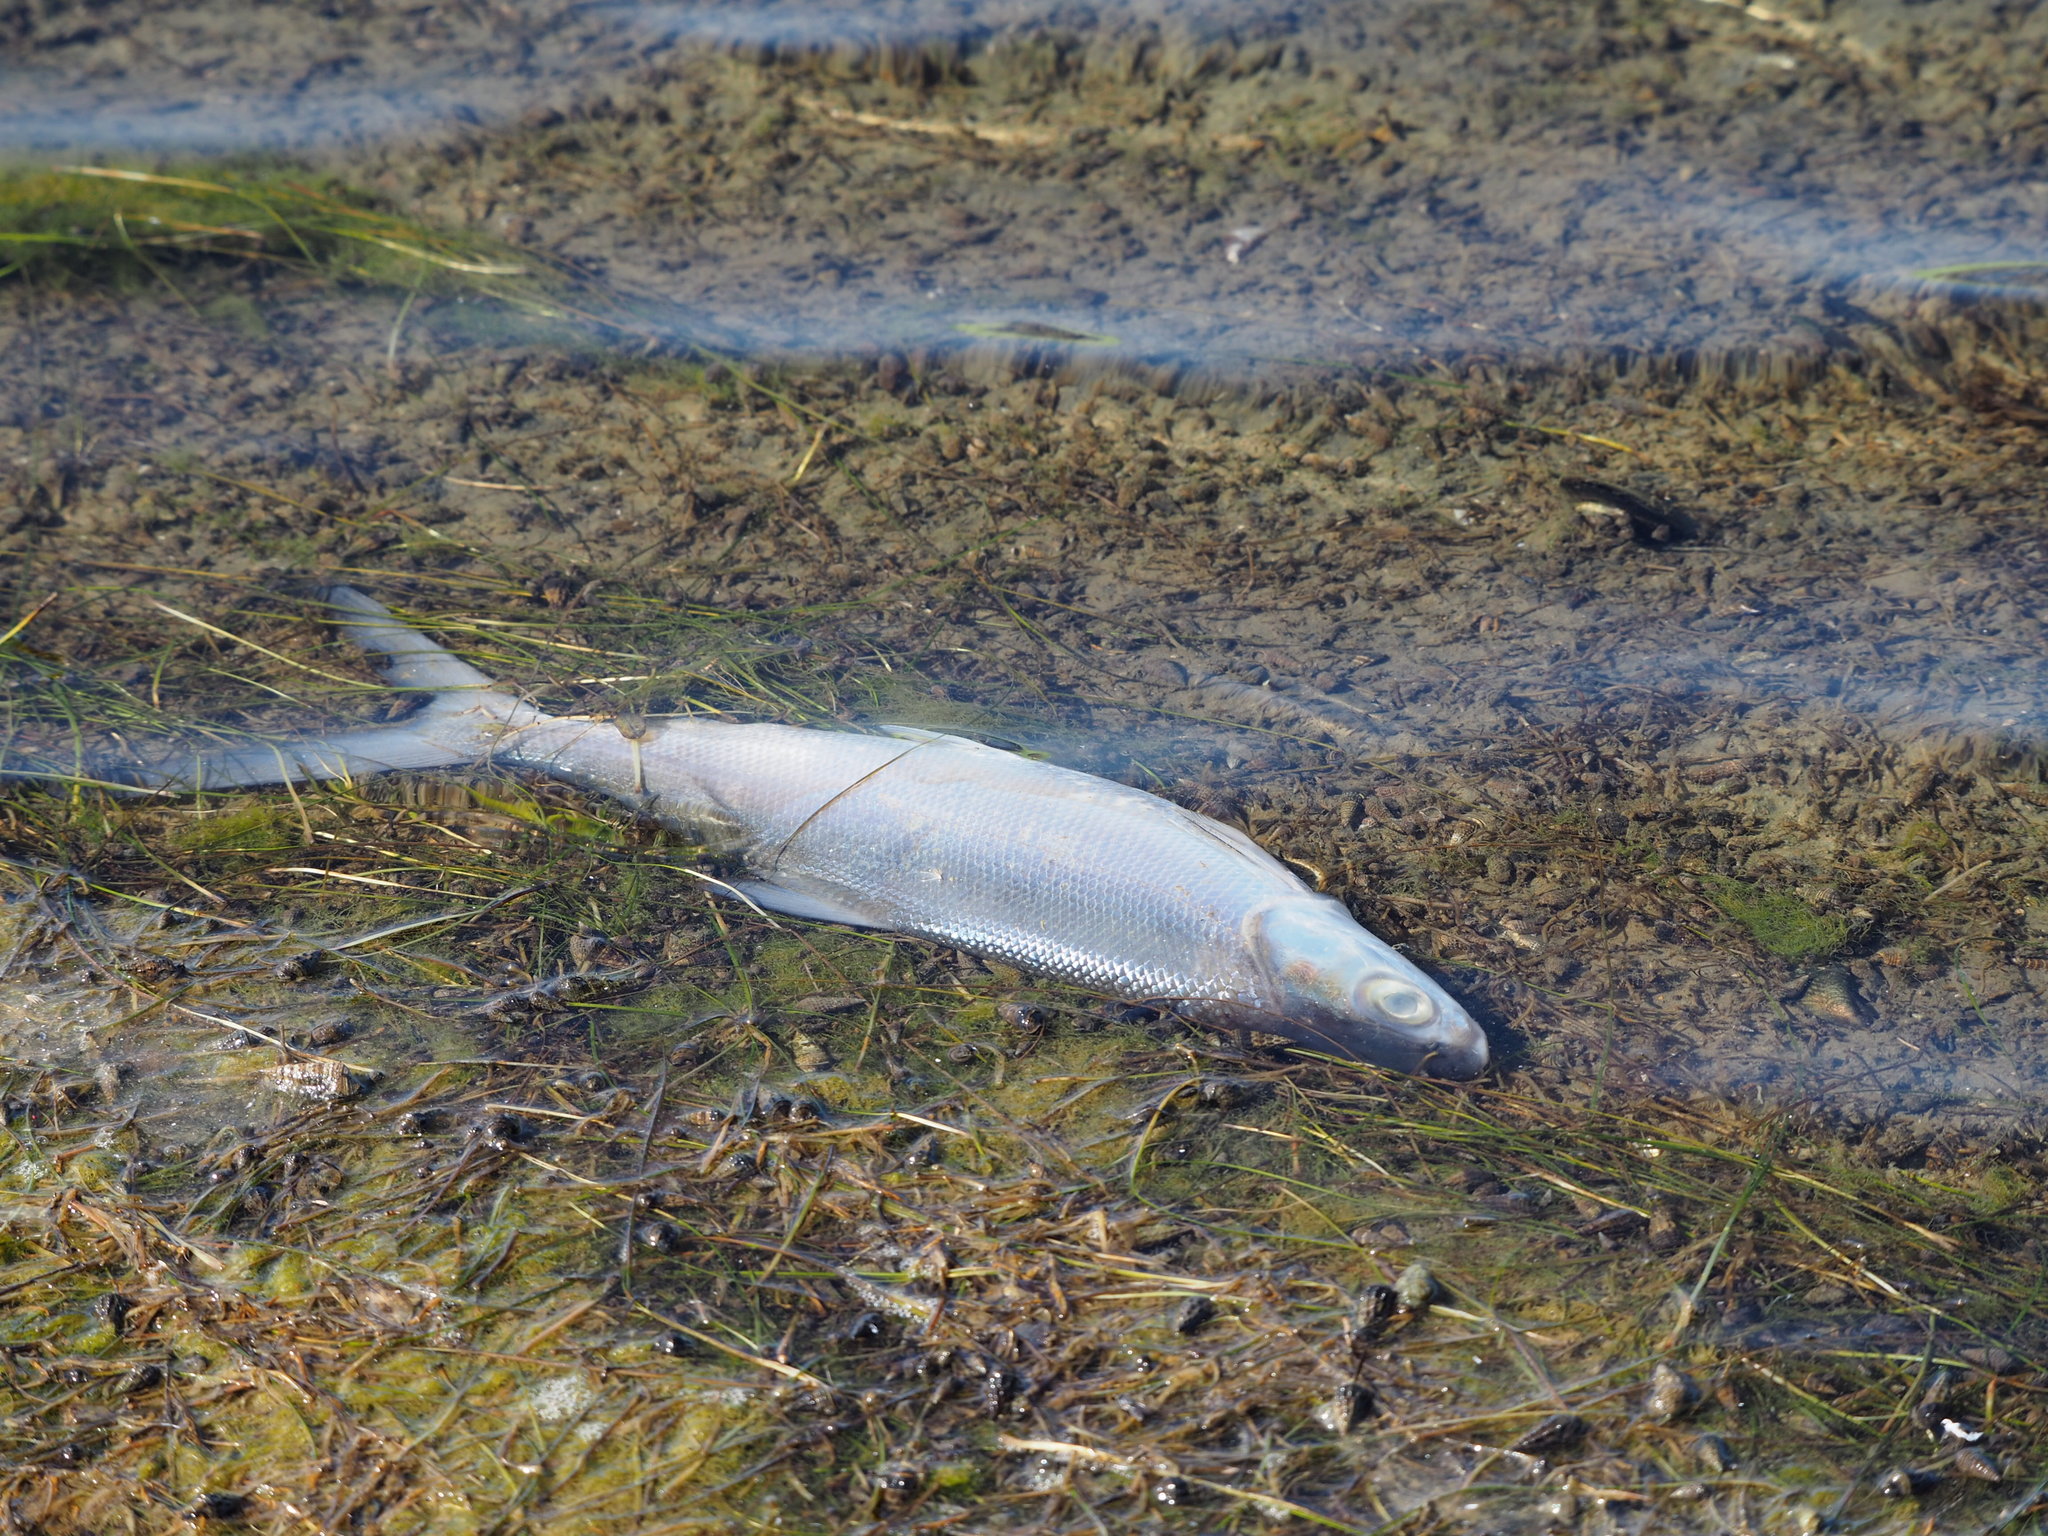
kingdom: Animalia
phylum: Chordata
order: Gonorynchiformes
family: Chanidae
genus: Chanos
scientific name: Chanos chanos
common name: Milkfish
